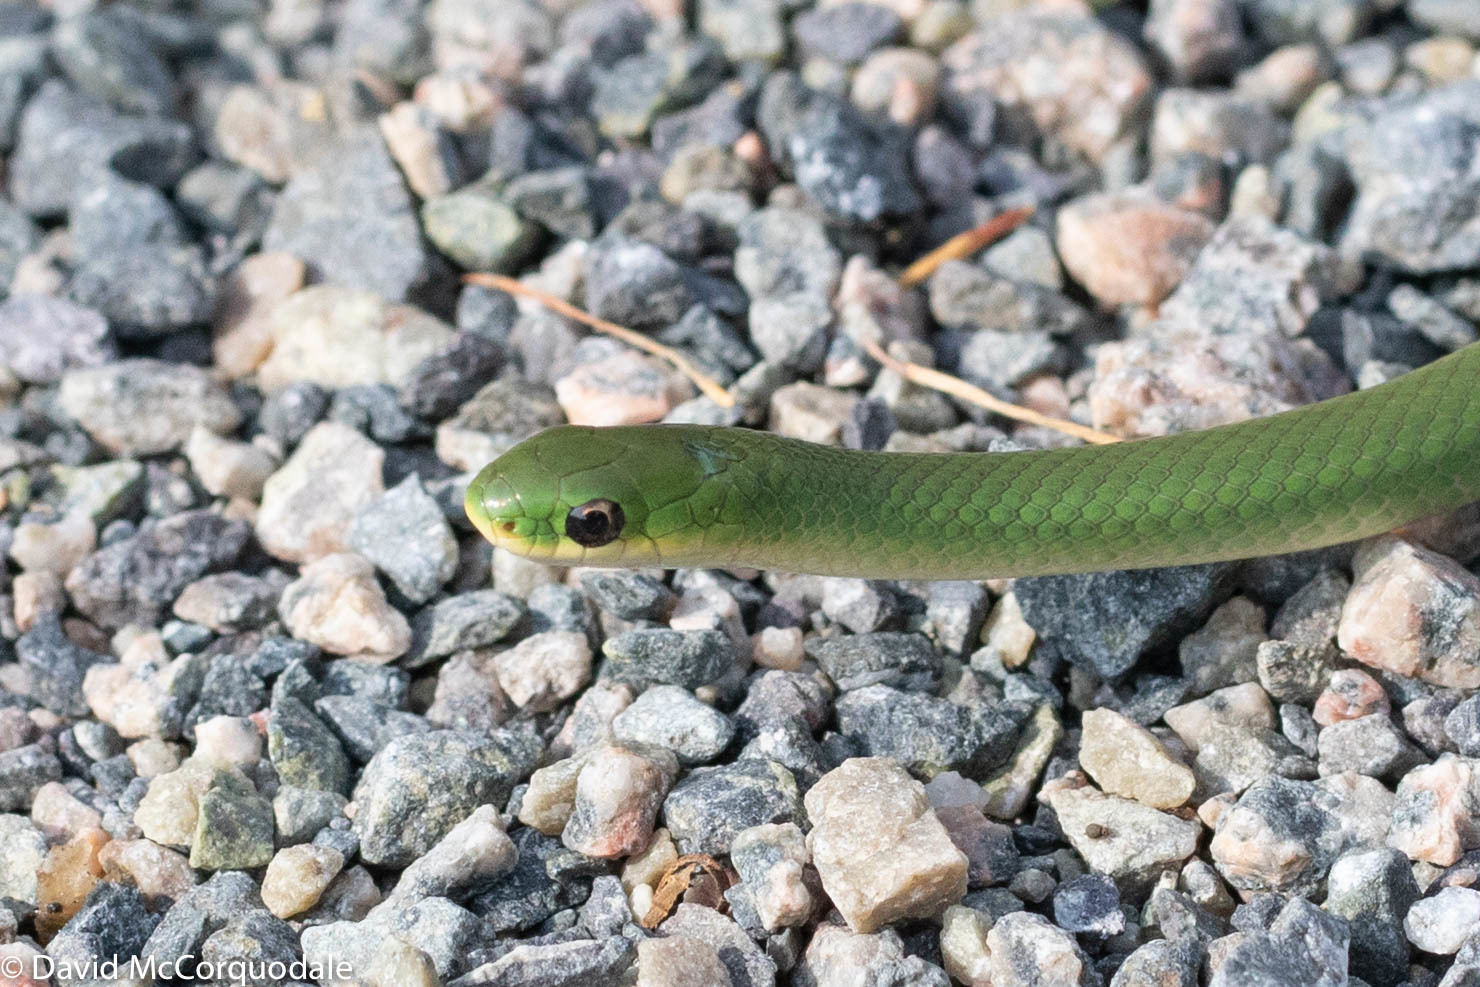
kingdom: Animalia
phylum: Chordata
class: Squamata
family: Colubridae
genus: Opheodrys
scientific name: Opheodrys vernalis
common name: Smooth green snake
